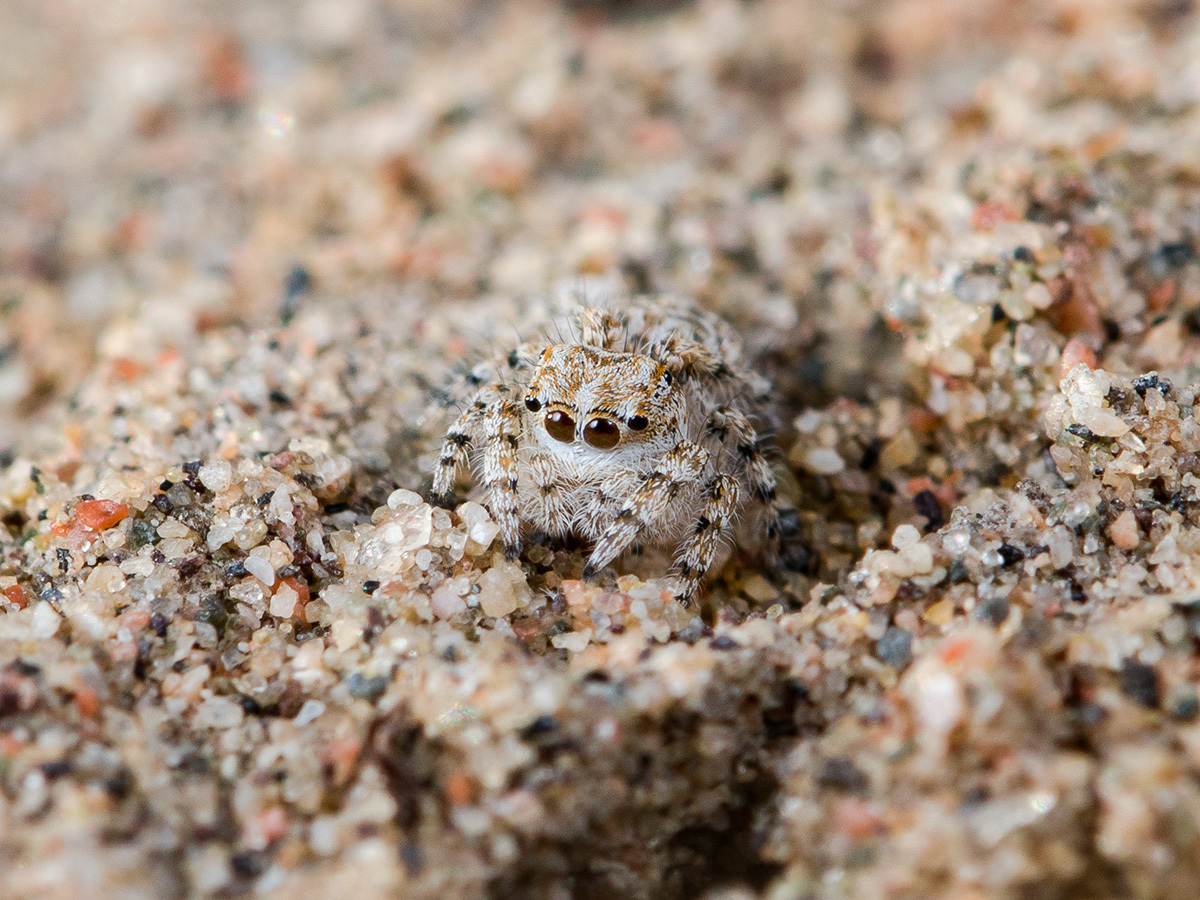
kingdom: Animalia
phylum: Arthropoda
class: Arachnida
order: Araneae
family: Salticidae
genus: Yllenus
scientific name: Yllenus turkestanicus
